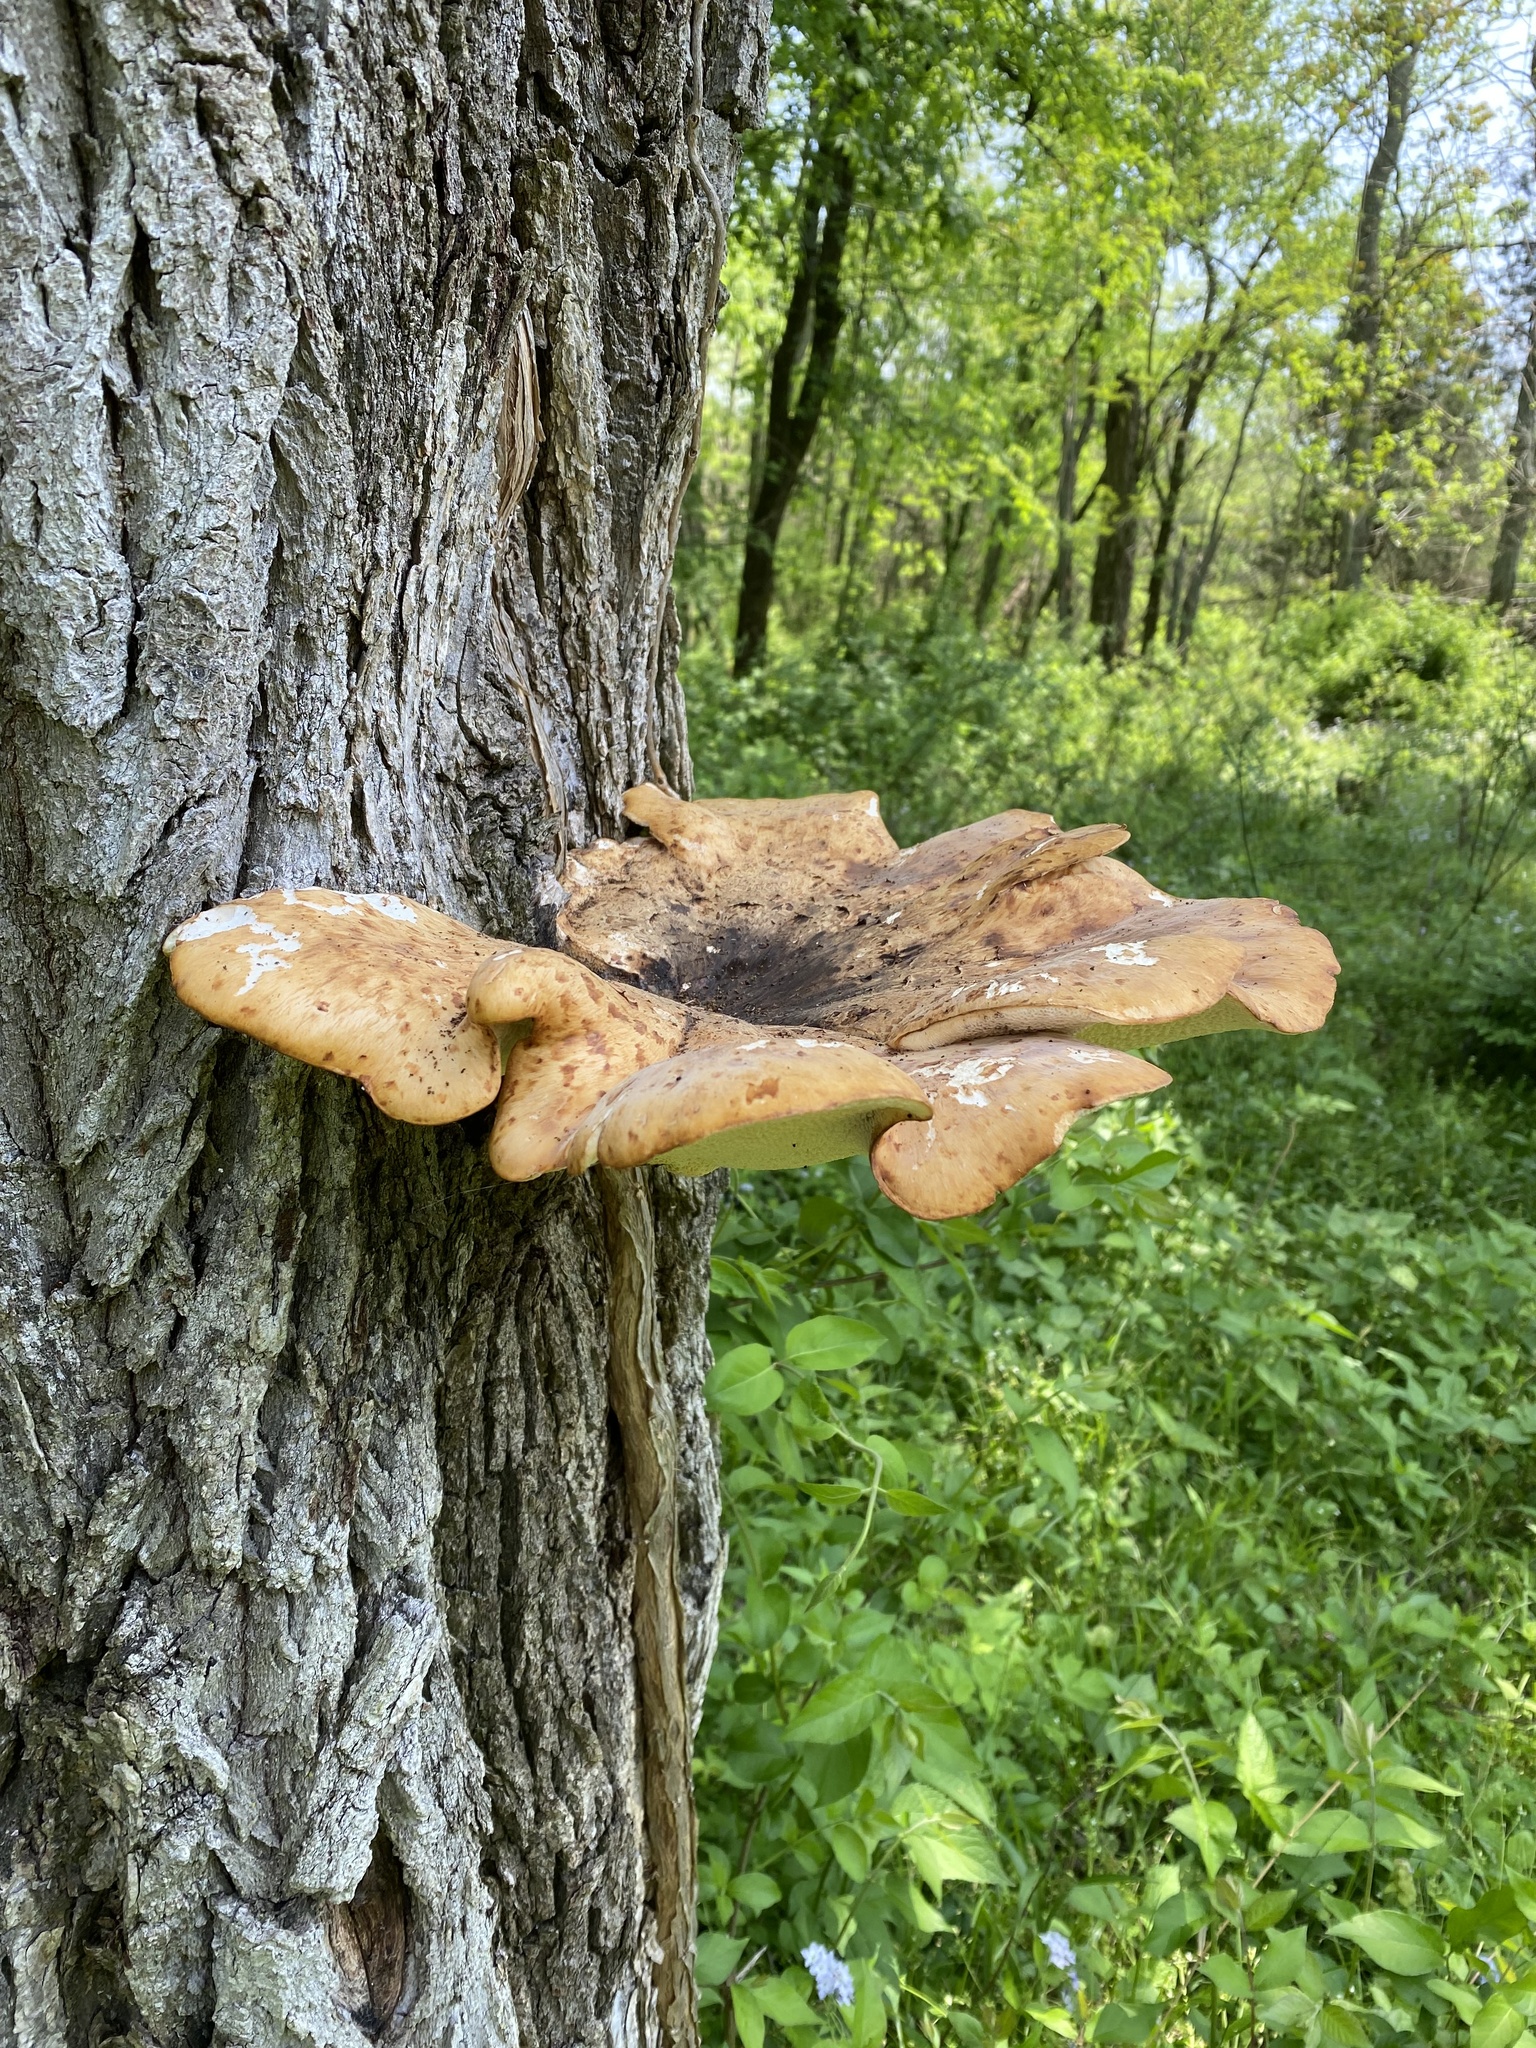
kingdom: Fungi
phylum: Basidiomycota
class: Agaricomycetes
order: Polyporales
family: Polyporaceae
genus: Cerioporus
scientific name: Cerioporus squamosus
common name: Dryad's saddle
